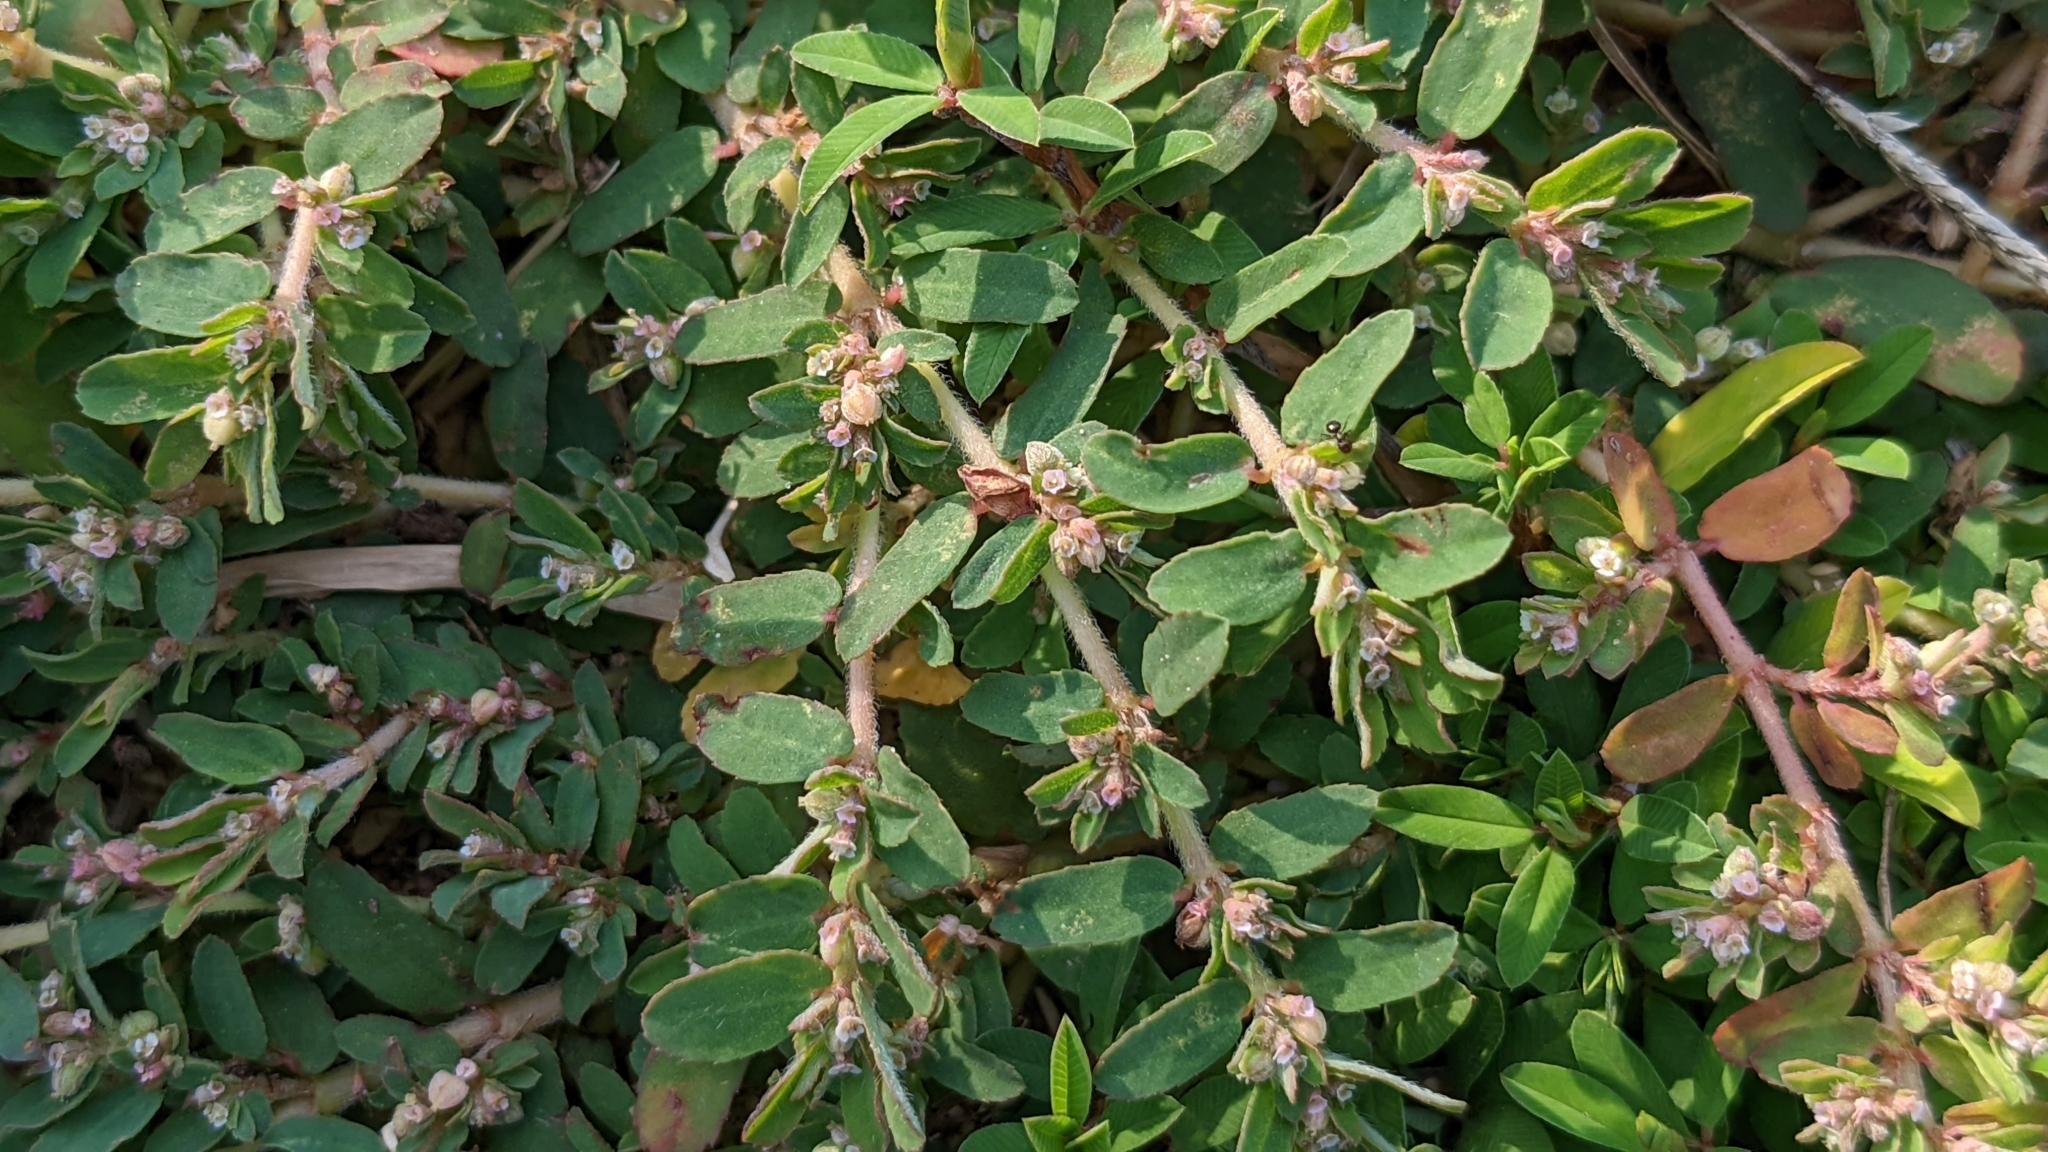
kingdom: Plantae
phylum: Tracheophyta
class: Magnoliopsida
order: Malpighiales
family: Euphorbiaceae
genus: Euphorbia
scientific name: Euphorbia maculata
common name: Spotted spurge
